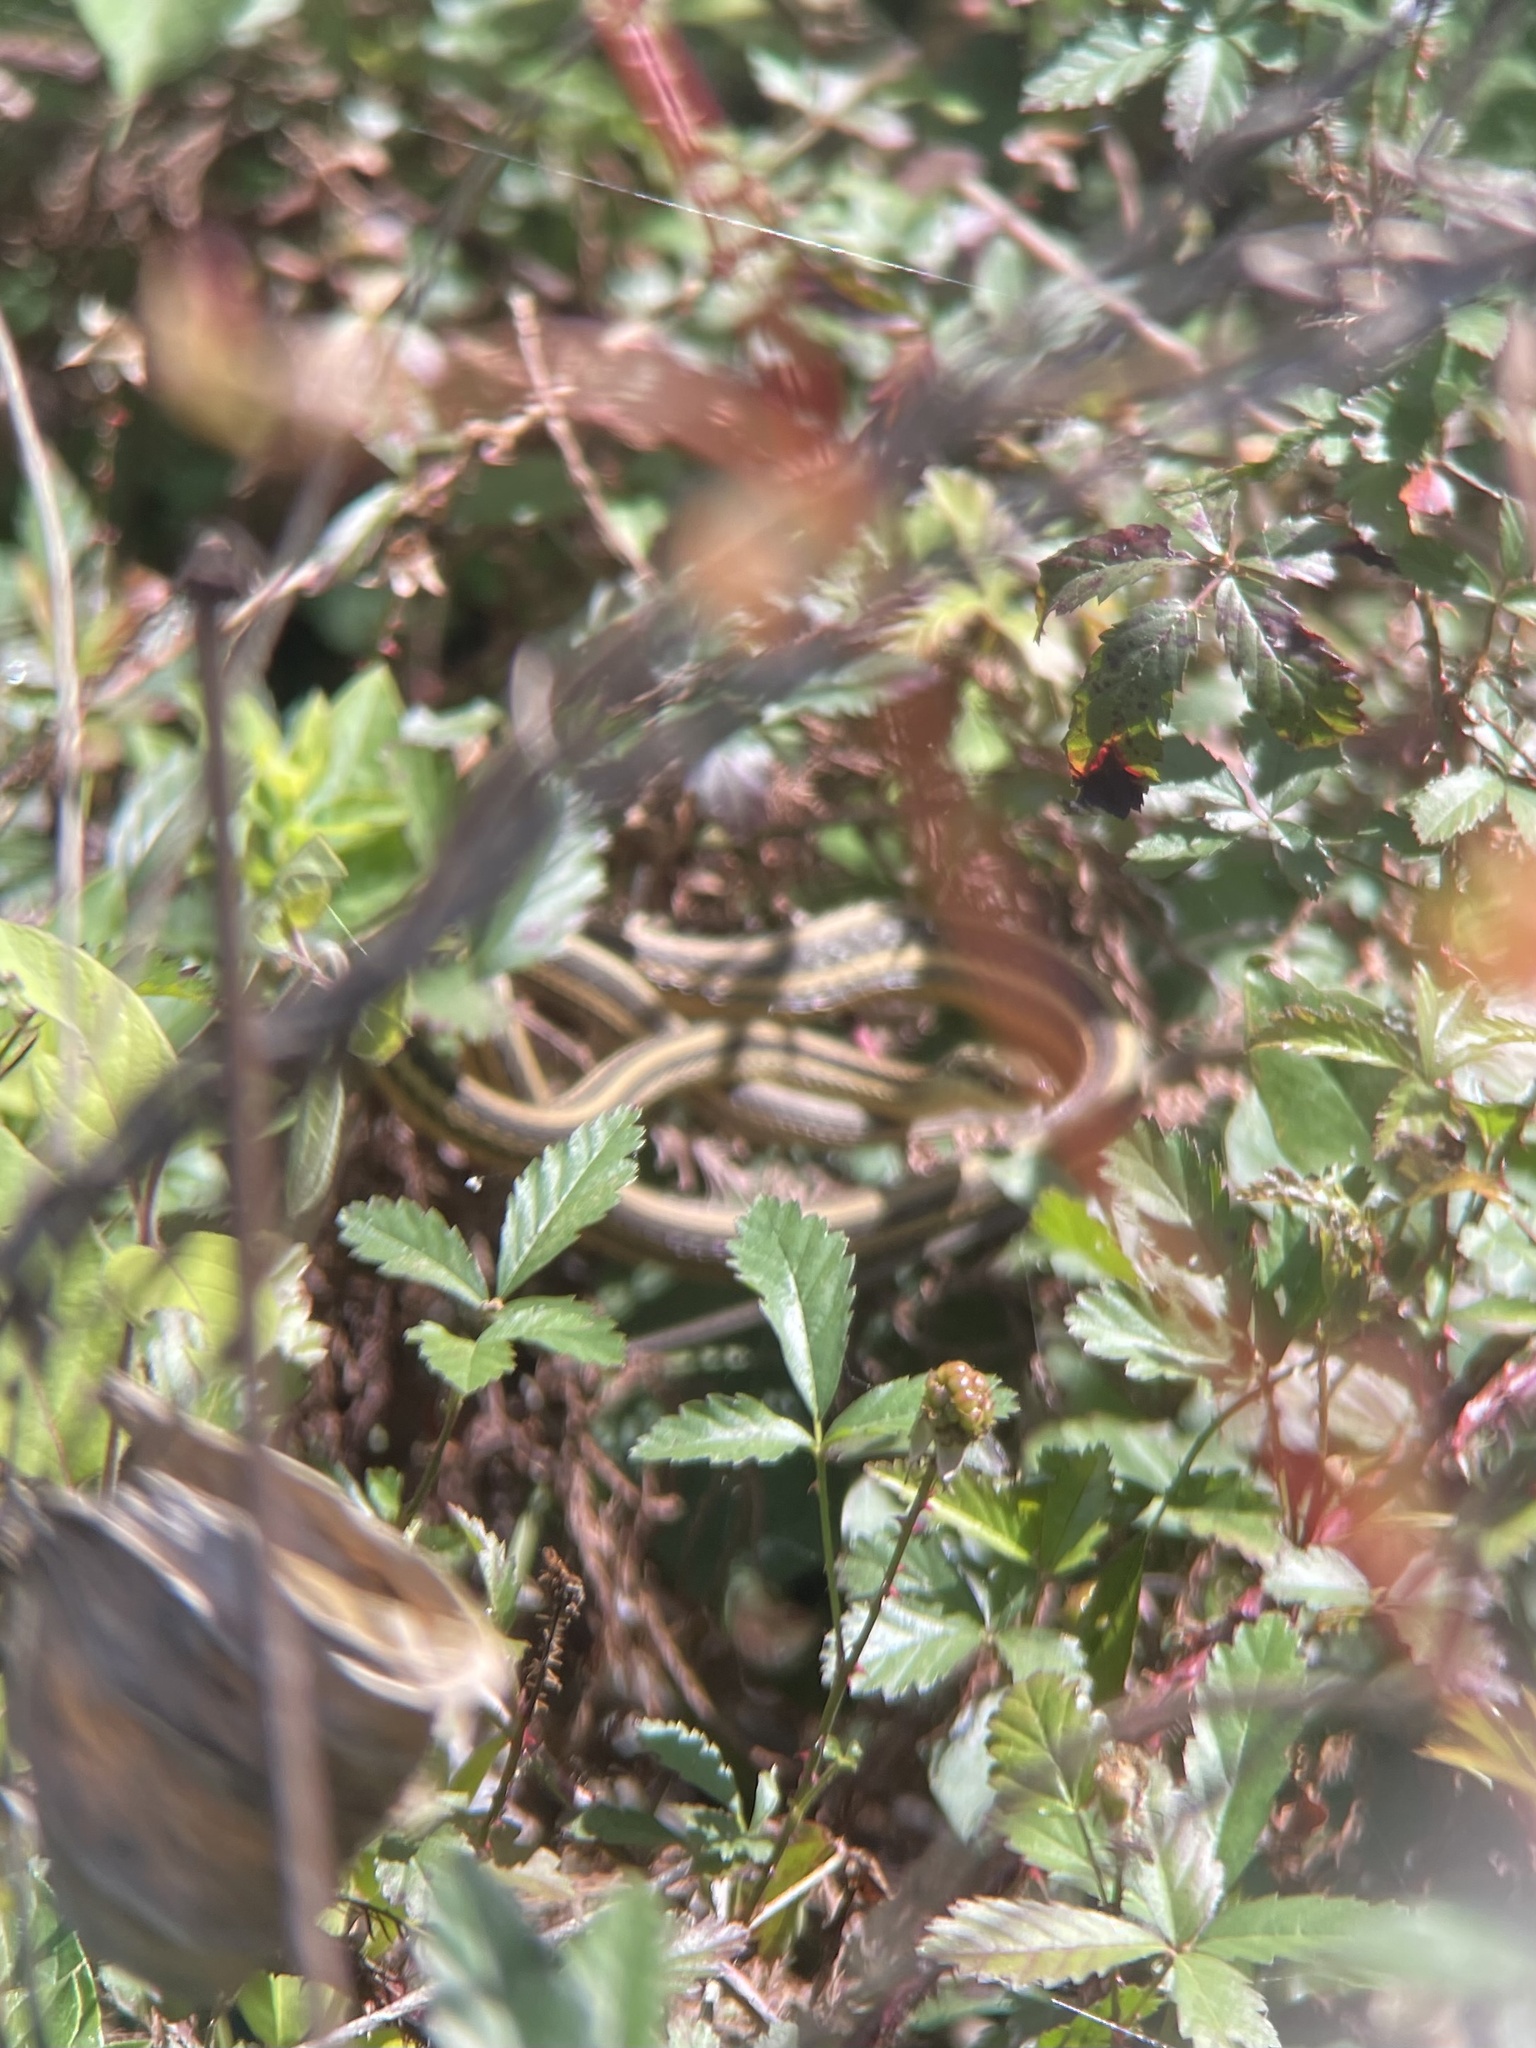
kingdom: Animalia
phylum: Chordata
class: Squamata
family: Colubridae
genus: Thamnophis
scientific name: Thamnophis proximus
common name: Western ribbon snake
